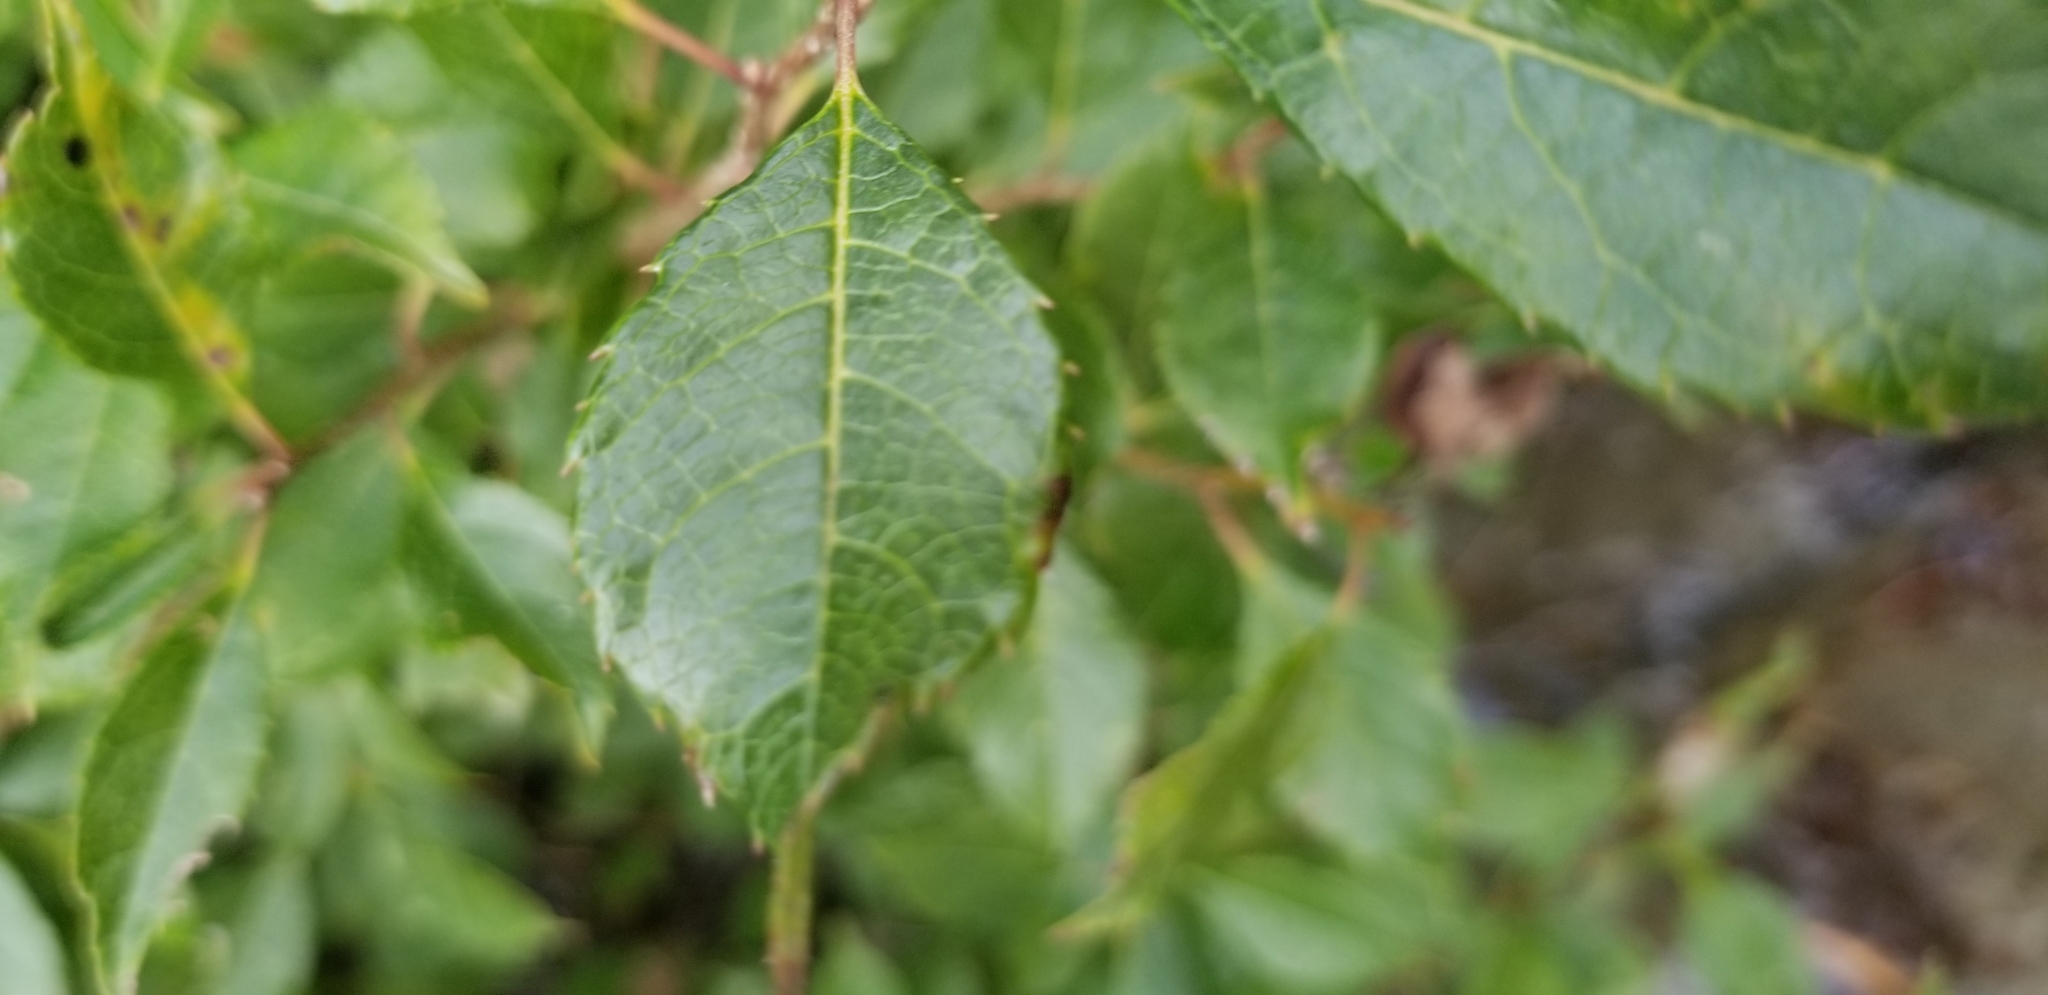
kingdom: Plantae
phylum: Tracheophyta
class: Magnoliopsida
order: Aquifoliales
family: Aquifoliaceae
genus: Ilex
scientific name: Ilex verticillata
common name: Virginia winterberry
